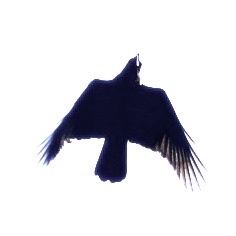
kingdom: Animalia
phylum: Chordata
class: Aves
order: Passeriformes
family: Corvidae
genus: Corvus
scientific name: Corvus brachyrhynchos
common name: American crow
